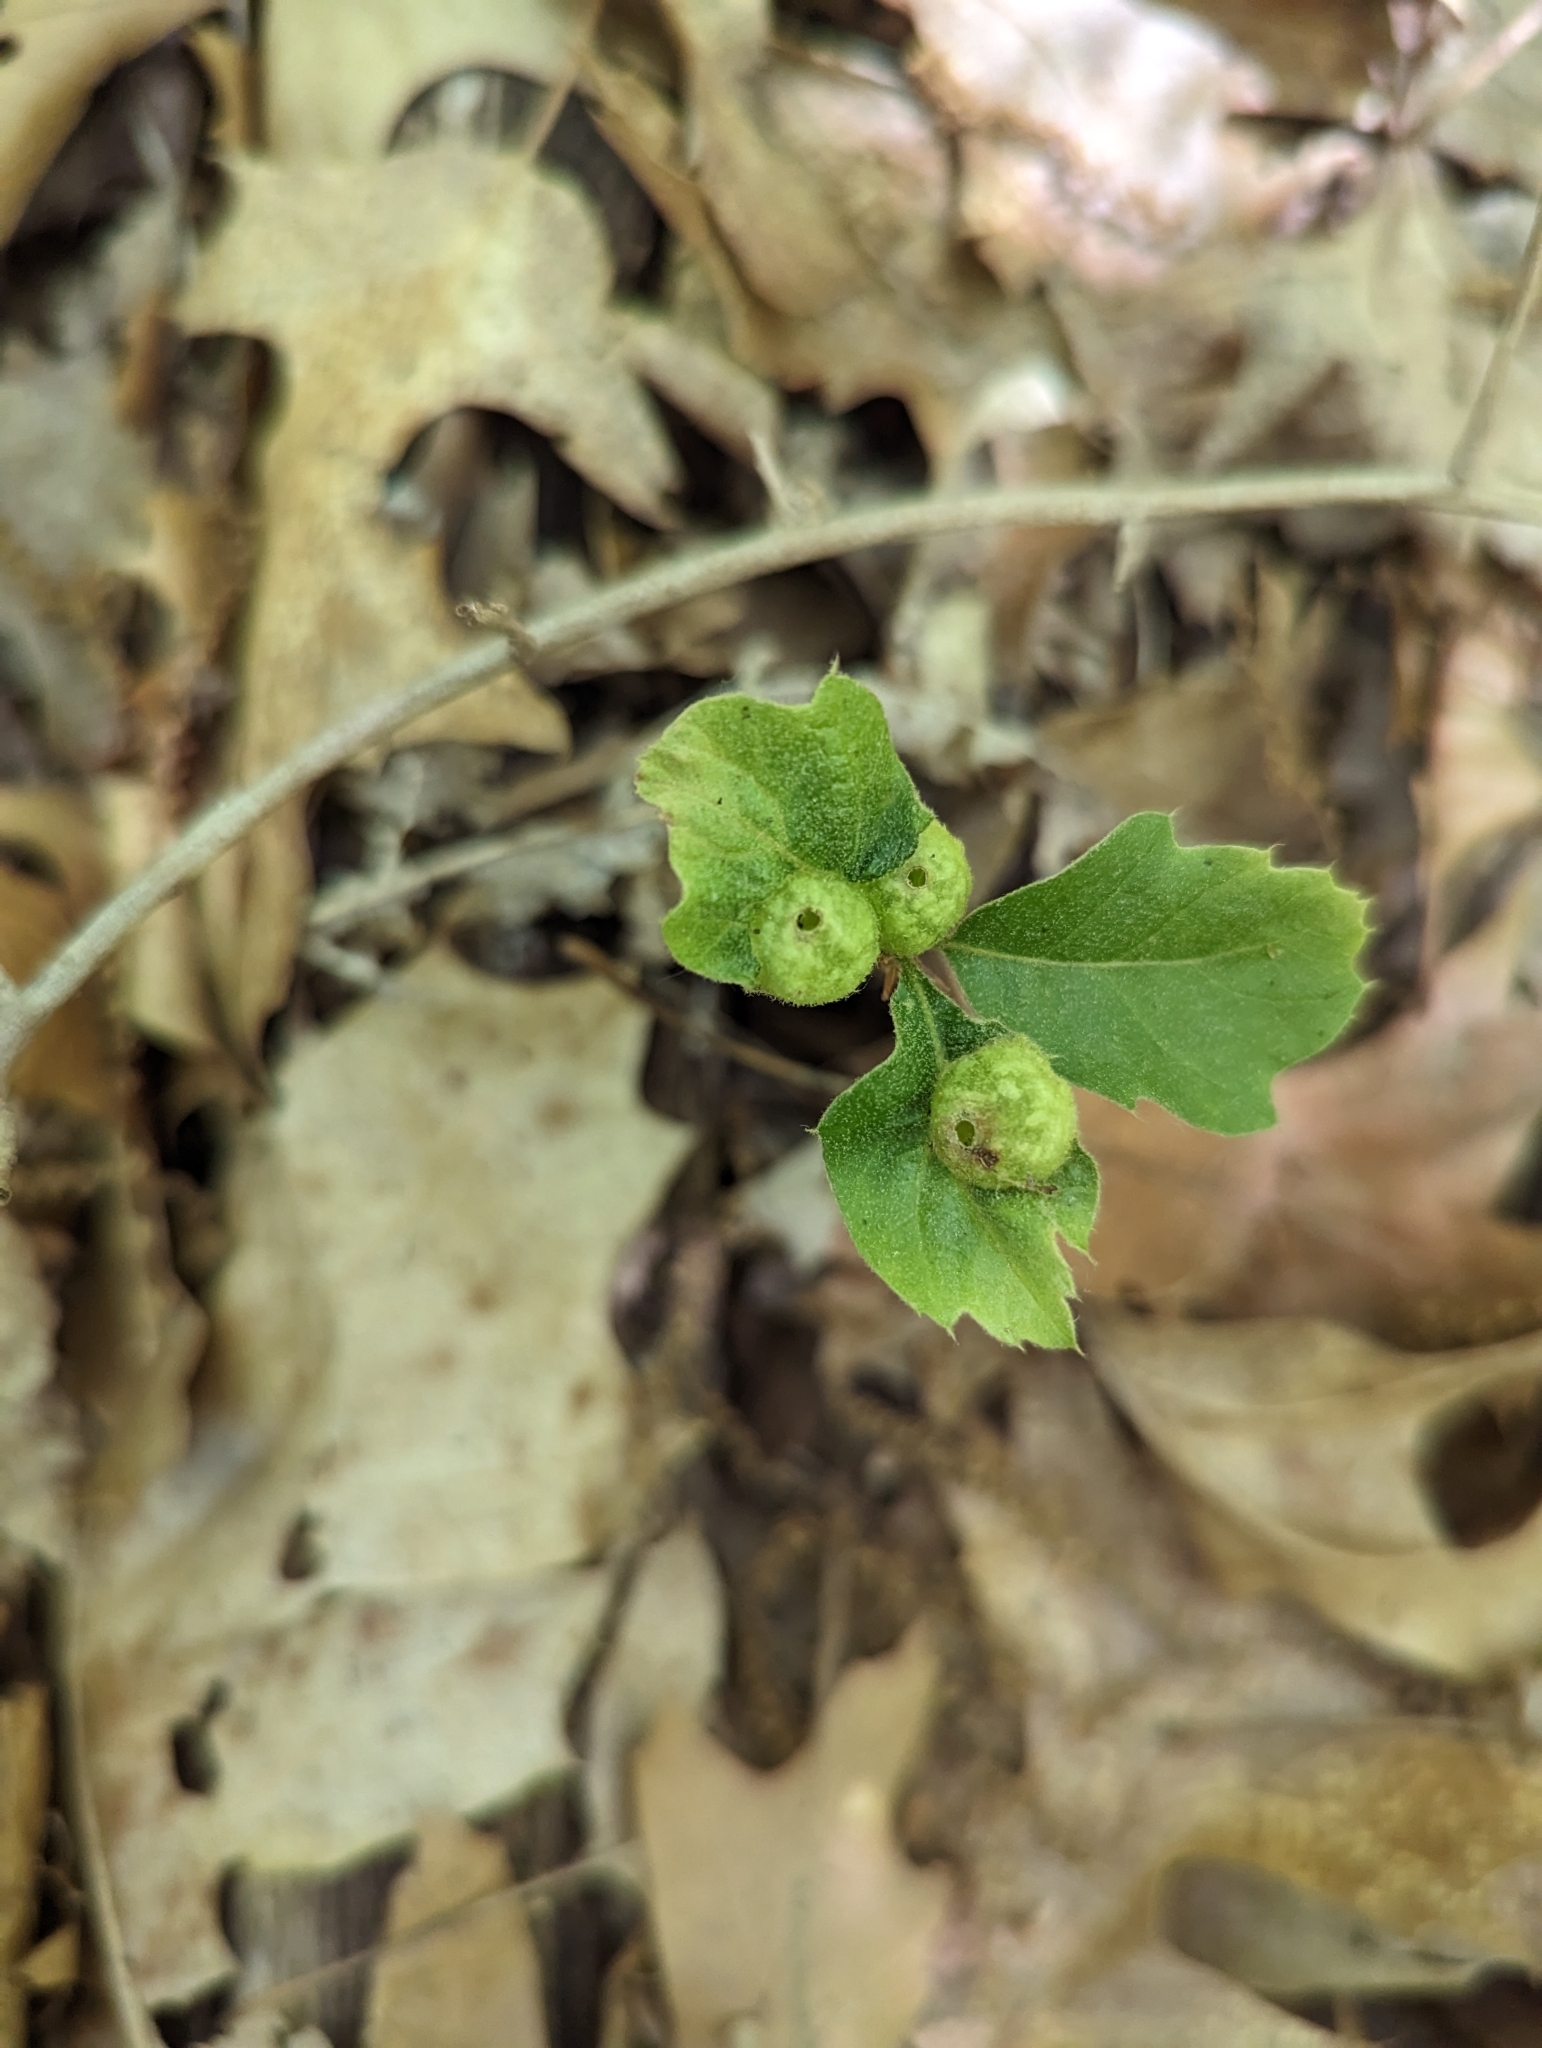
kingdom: Animalia
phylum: Arthropoda
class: Insecta
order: Hymenoptera
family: Cynipidae
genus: Dryocosmus
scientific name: Dryocosmus quercuspalustris
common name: Succulent oak gall wasp
